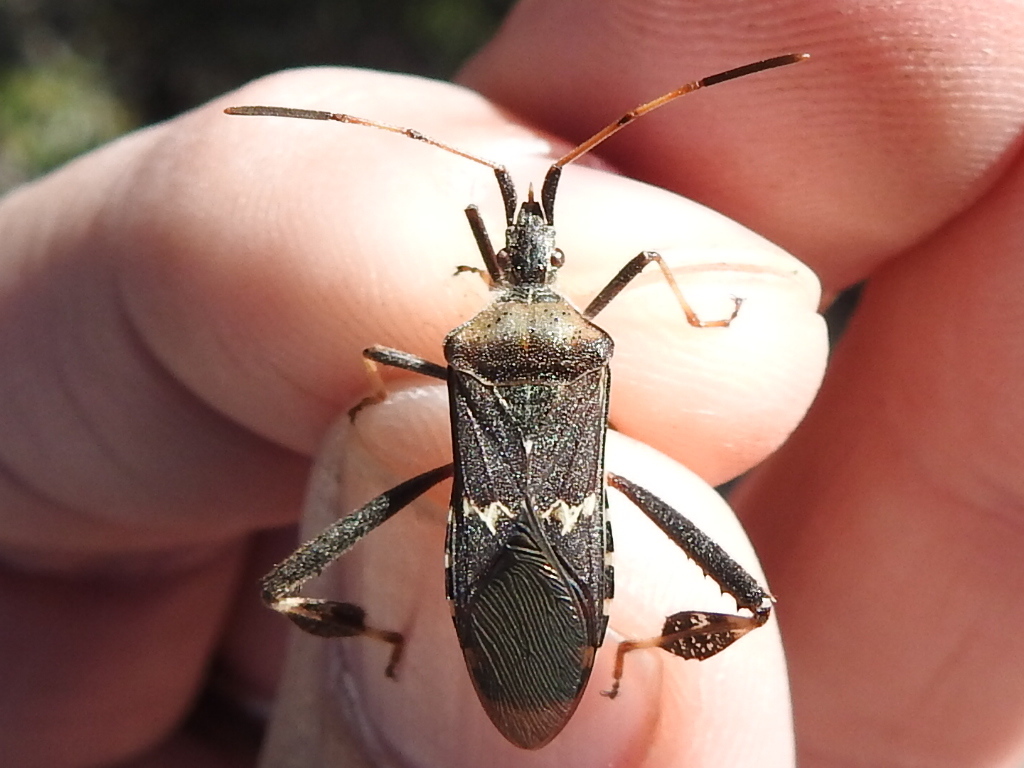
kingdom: Animalia
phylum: Arthropoda
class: Insecta
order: Hemiptera
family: Coreidae
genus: Leptoglossus
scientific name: Leptoglossus clypealis
